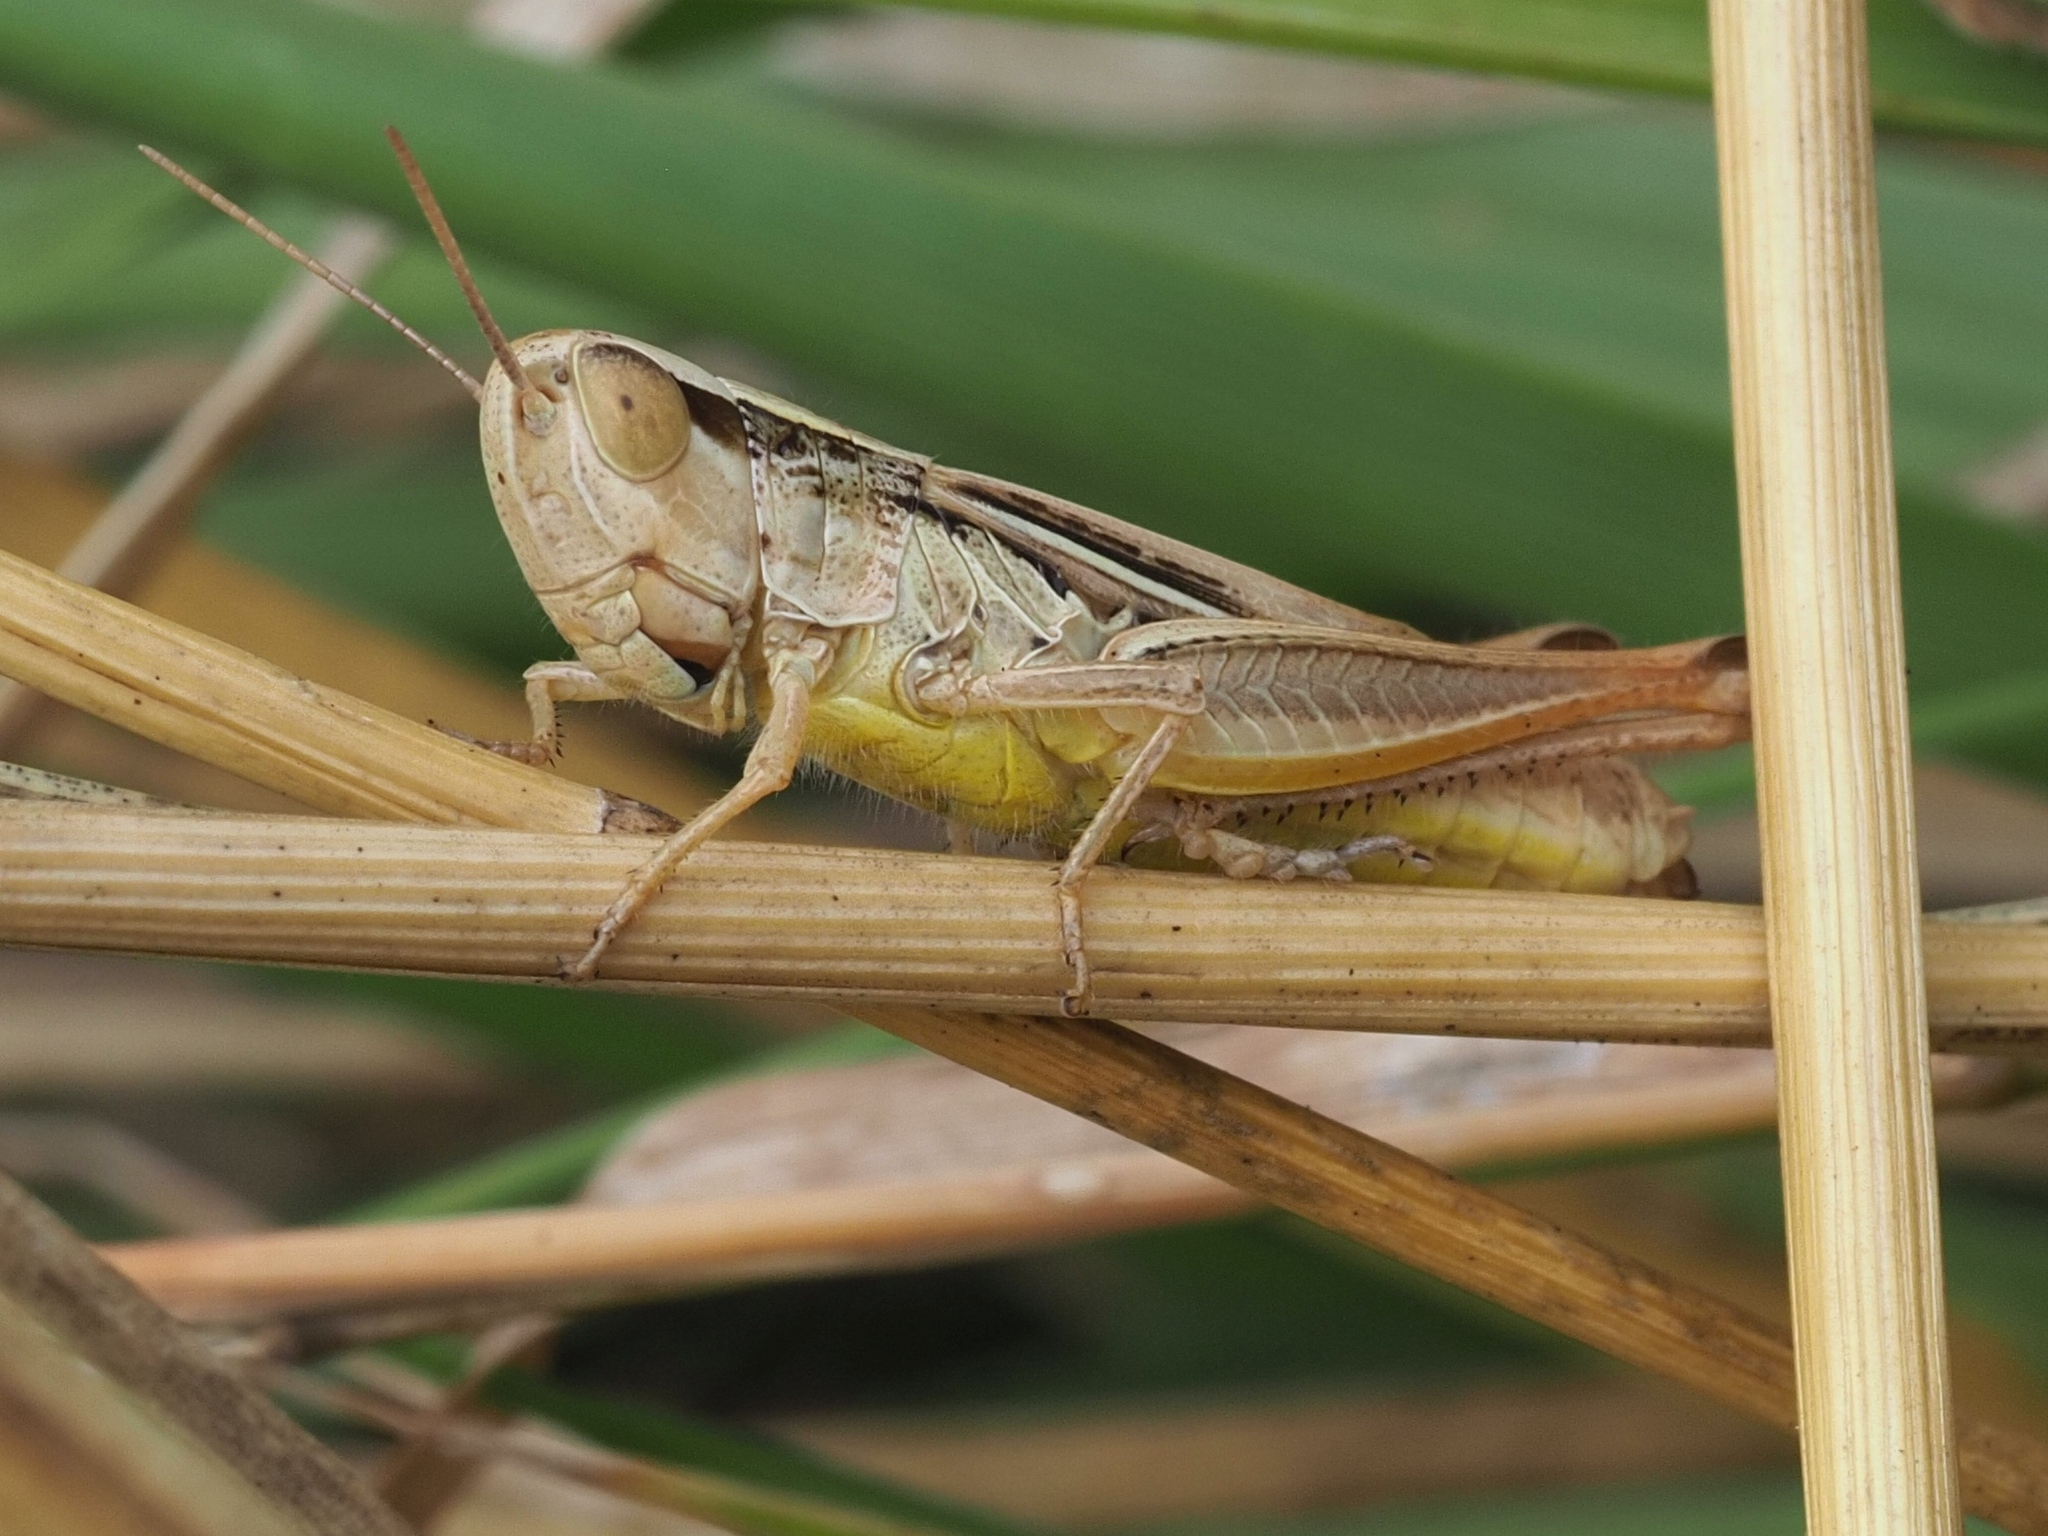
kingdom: Animalia
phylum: Arthropoda
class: Insecta
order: Orthoptera
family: Acrididae
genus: Euchorthippus
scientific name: Euchorthippus declivus
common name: Common straw grasshopper
